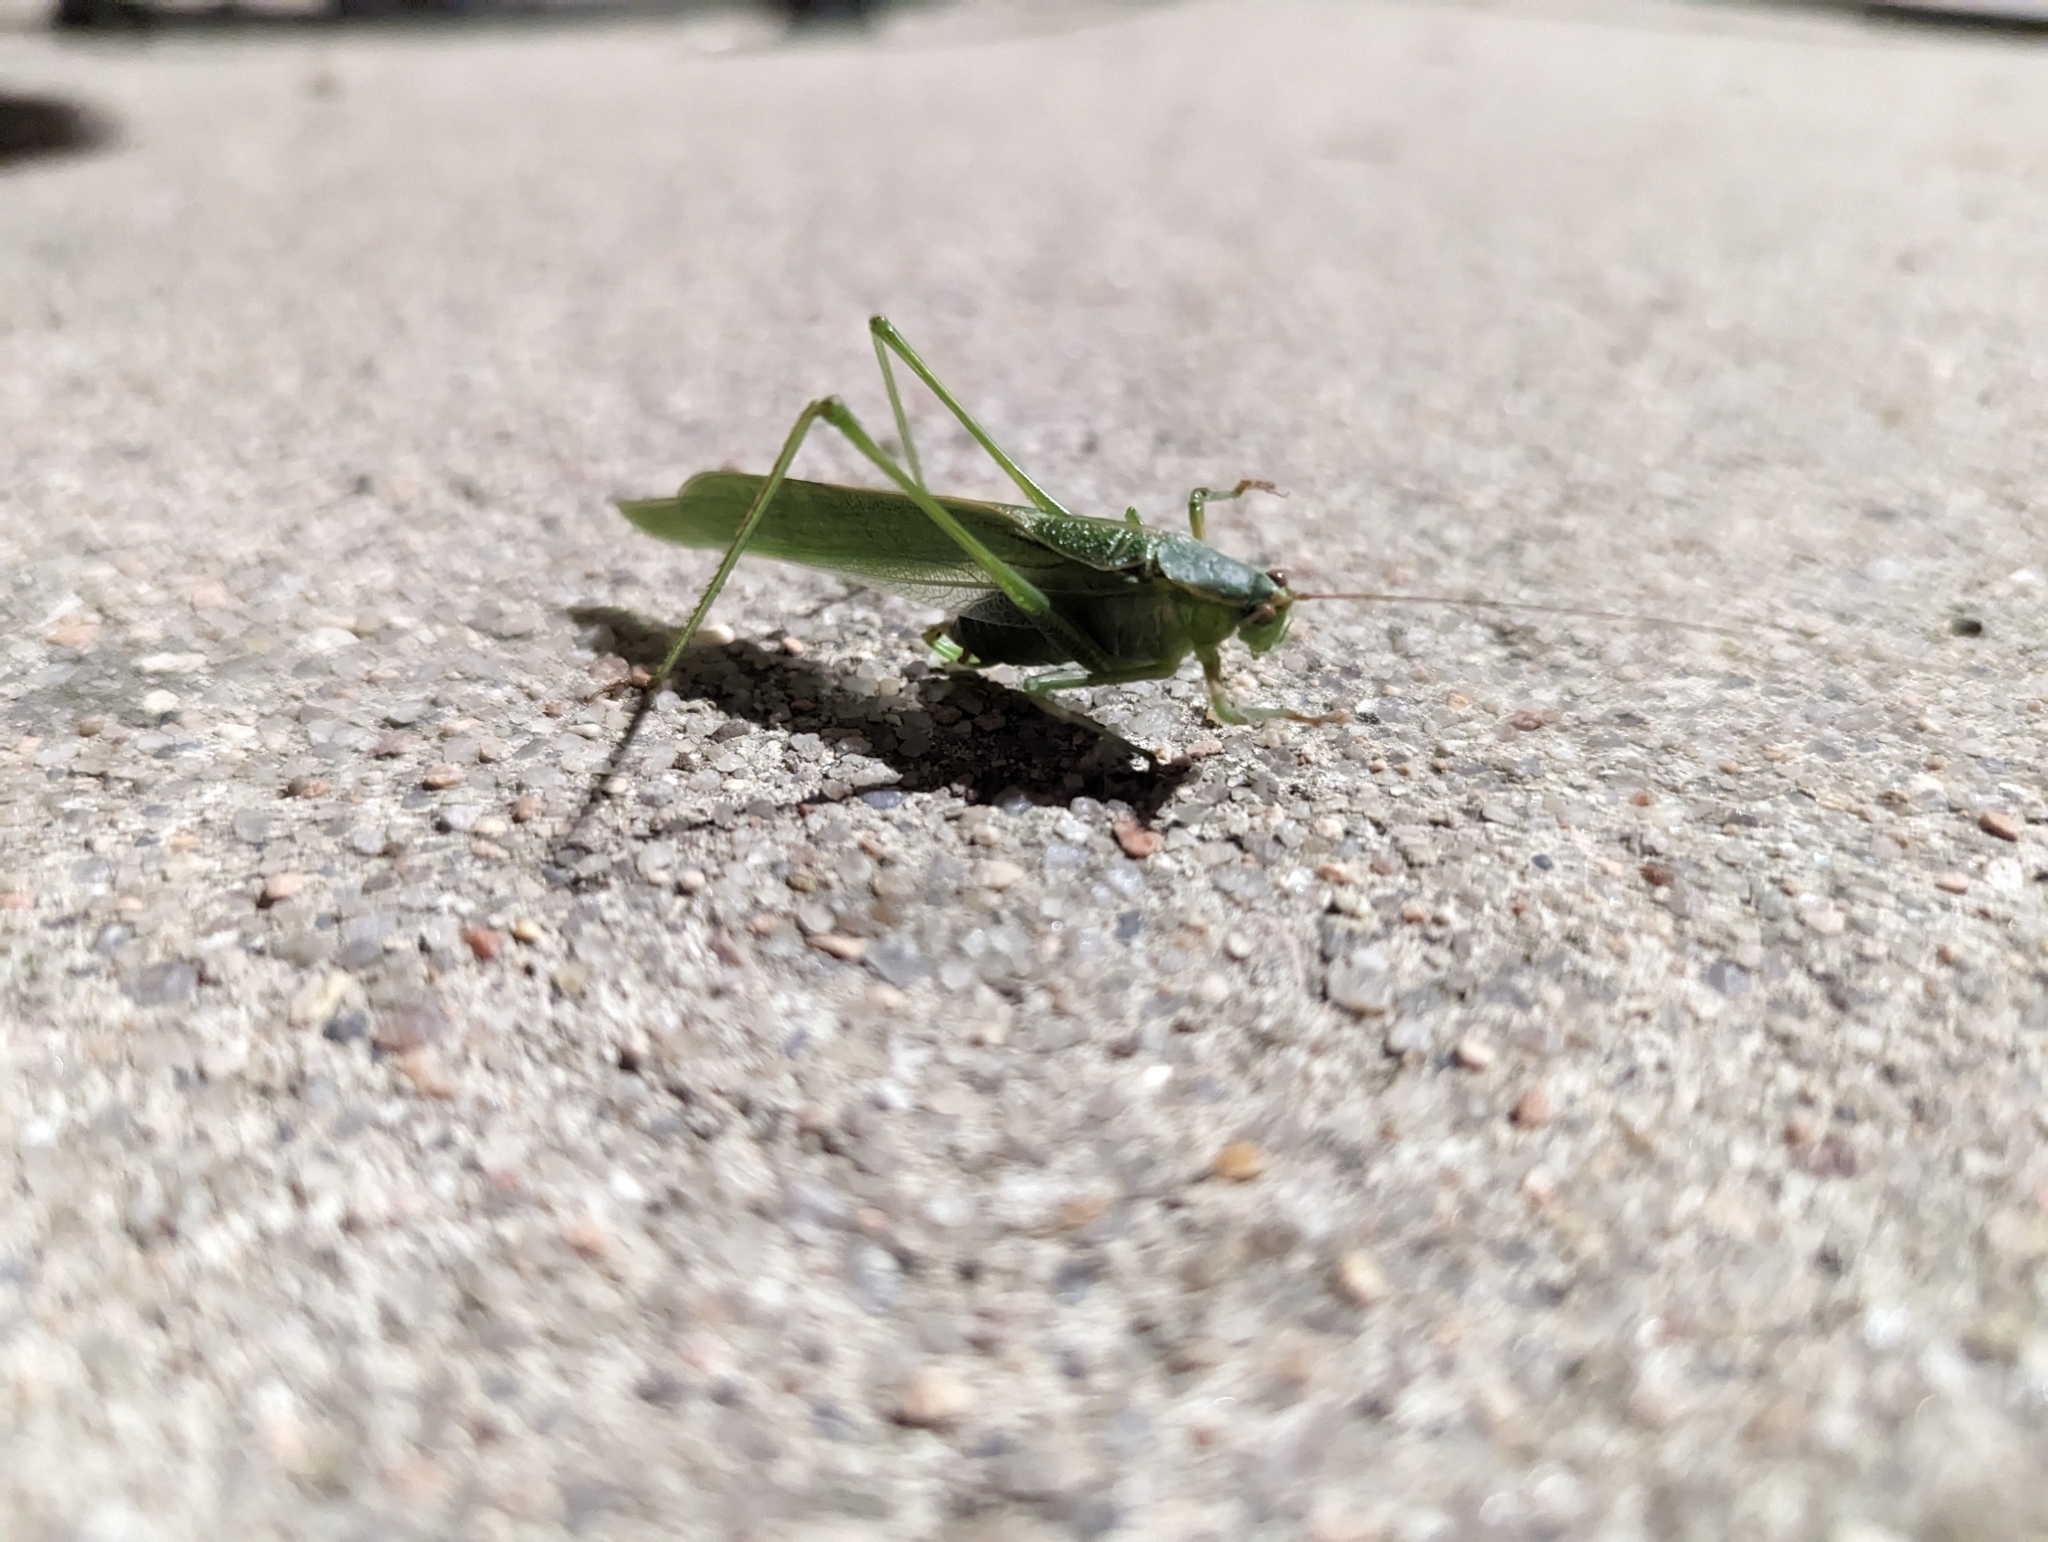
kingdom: Animalia
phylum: Arthropoda
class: Insecta
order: Orthoptera
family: Tettigoniidae
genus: Scudderia
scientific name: Scudderia furcata
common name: Fork-tailed bush katydid
